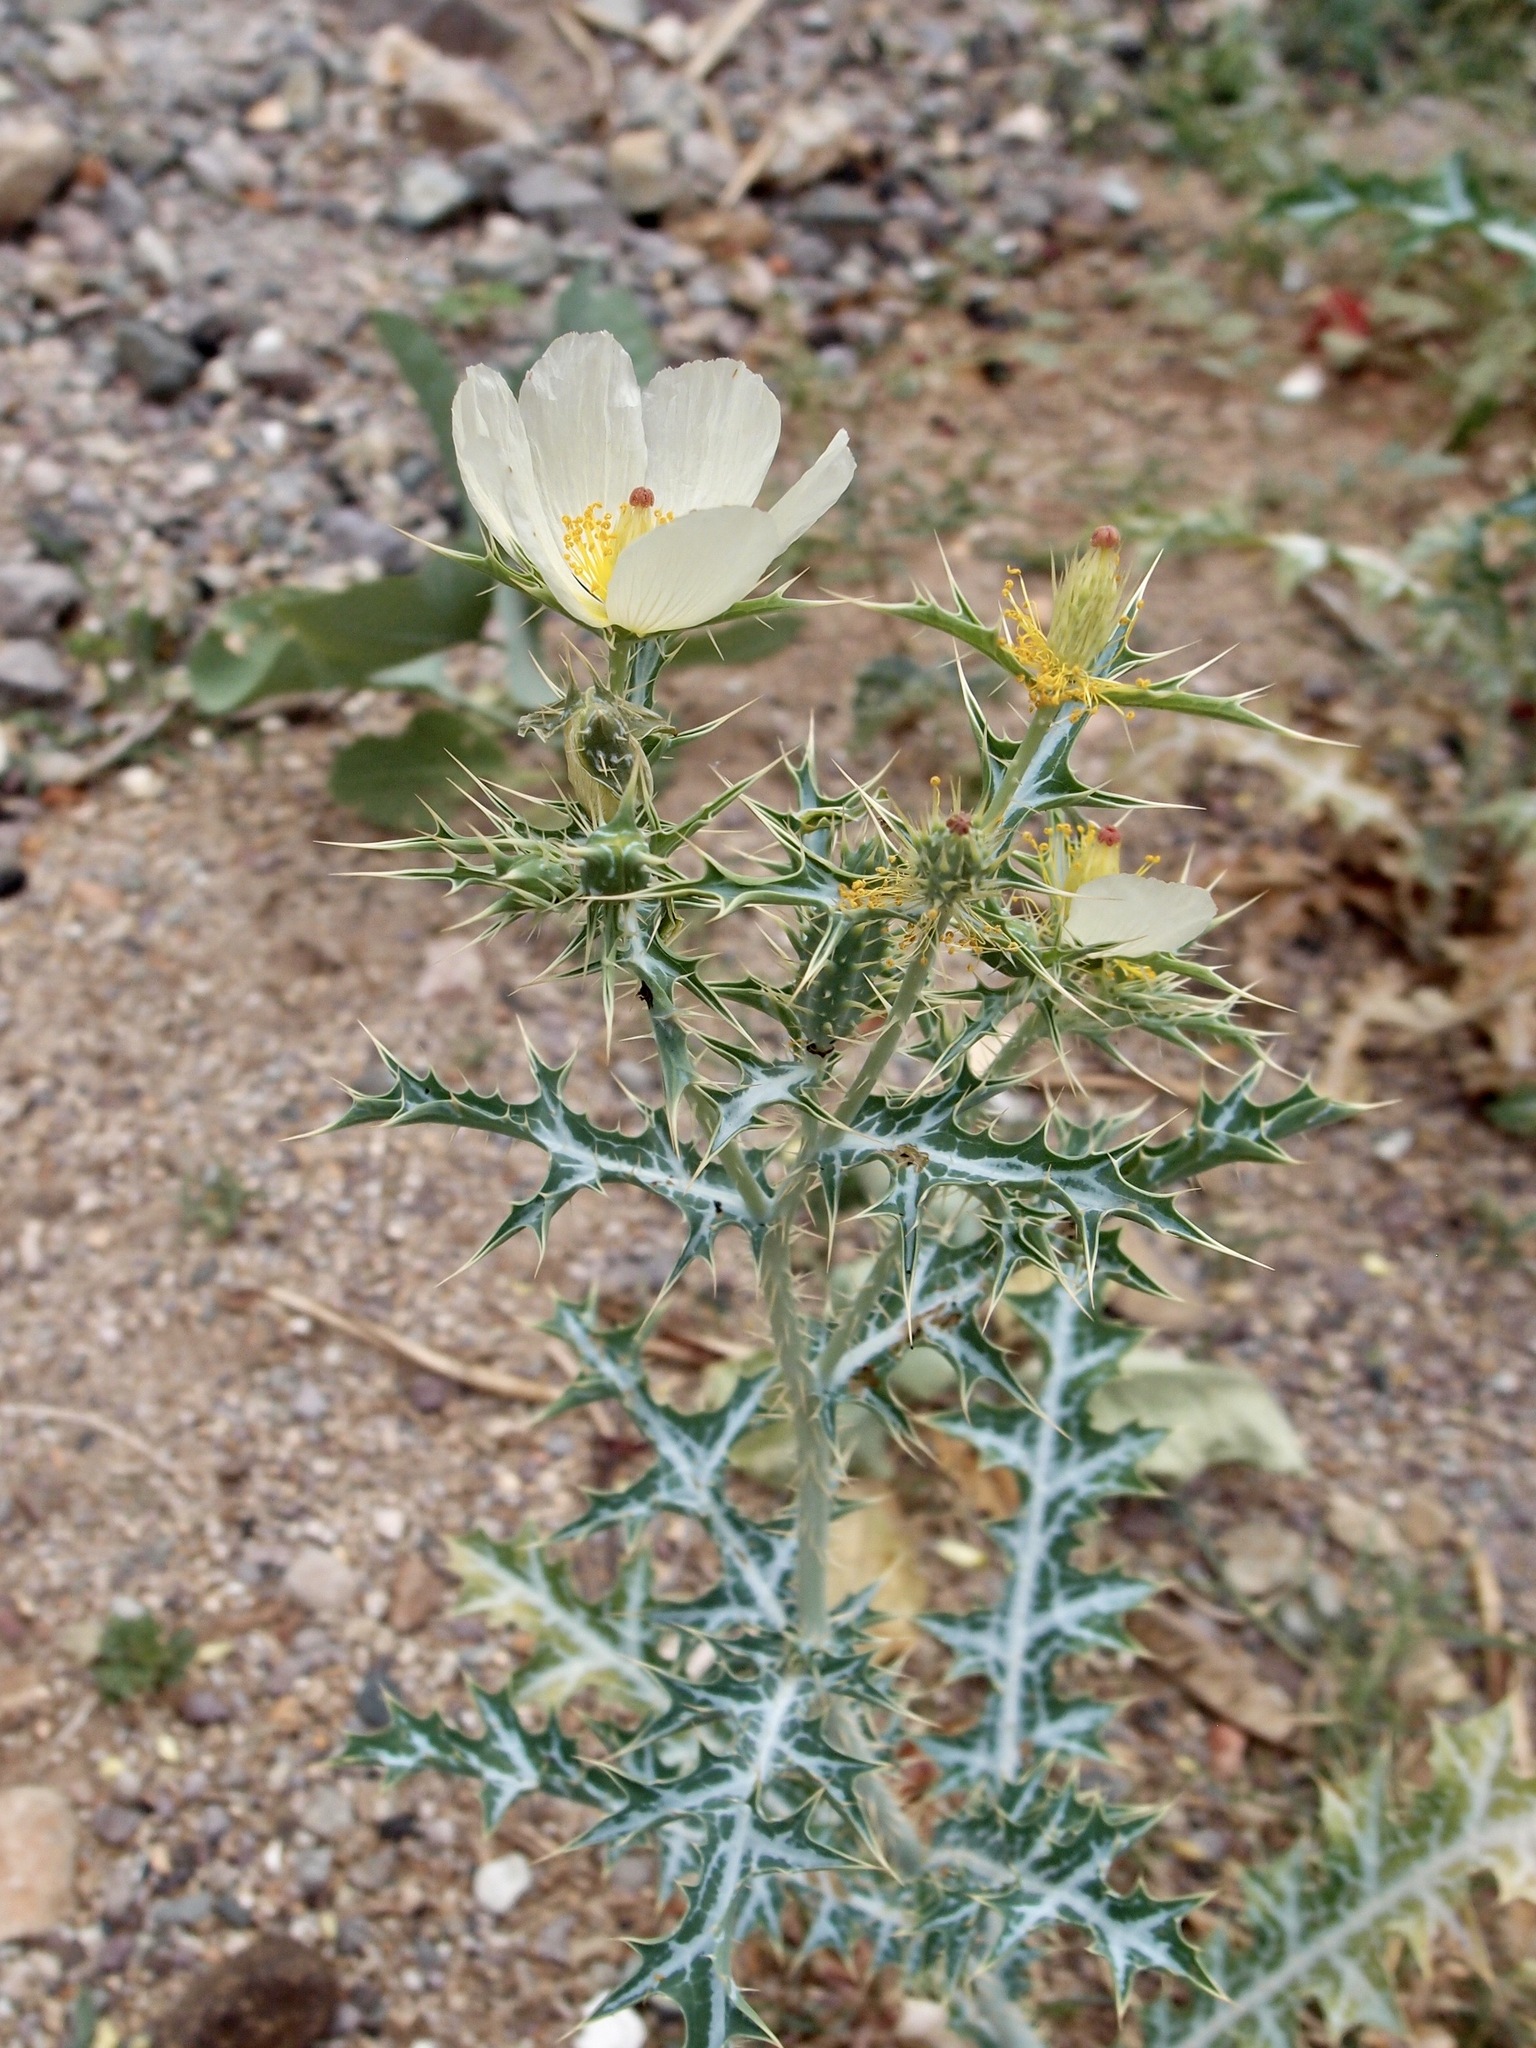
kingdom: Plantae
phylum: Tracheophyta
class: Magnoliopsida
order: Ranunculales
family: Papaveraceae
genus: Argemone
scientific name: Argemone ochroleuca
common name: White-flower mexican-poppy
